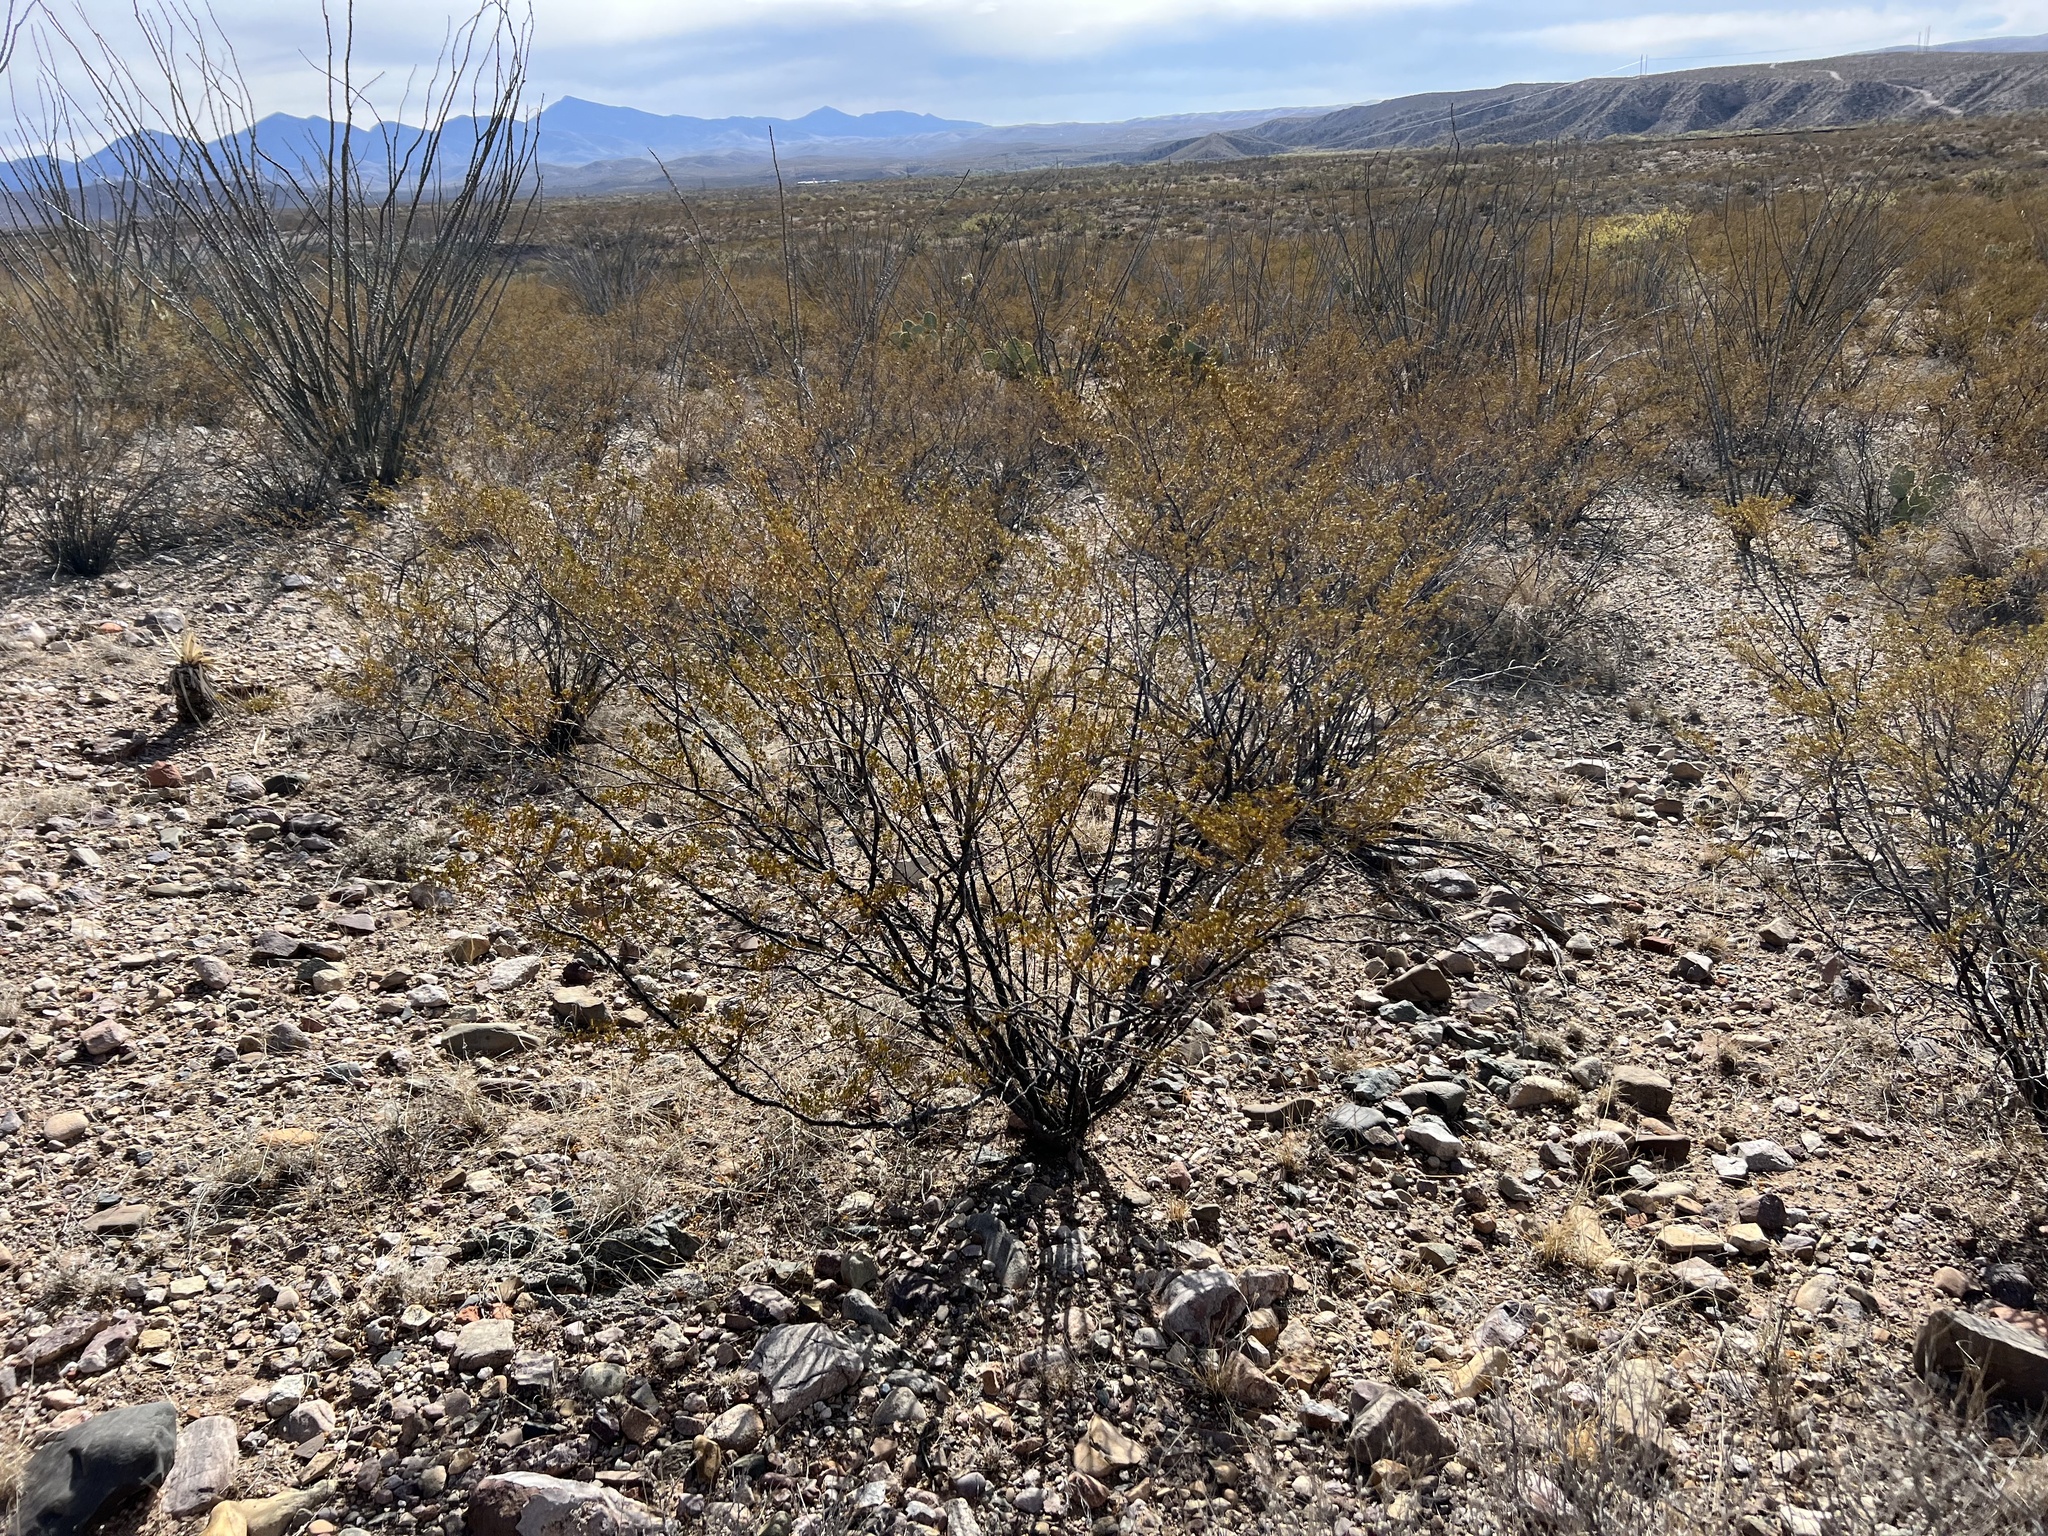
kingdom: Plantae
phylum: Tracheophyta
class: Magnoliopsida
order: Zygophyllales
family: Zygophyllaceae
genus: Larrea
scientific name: Larrea tridentata
